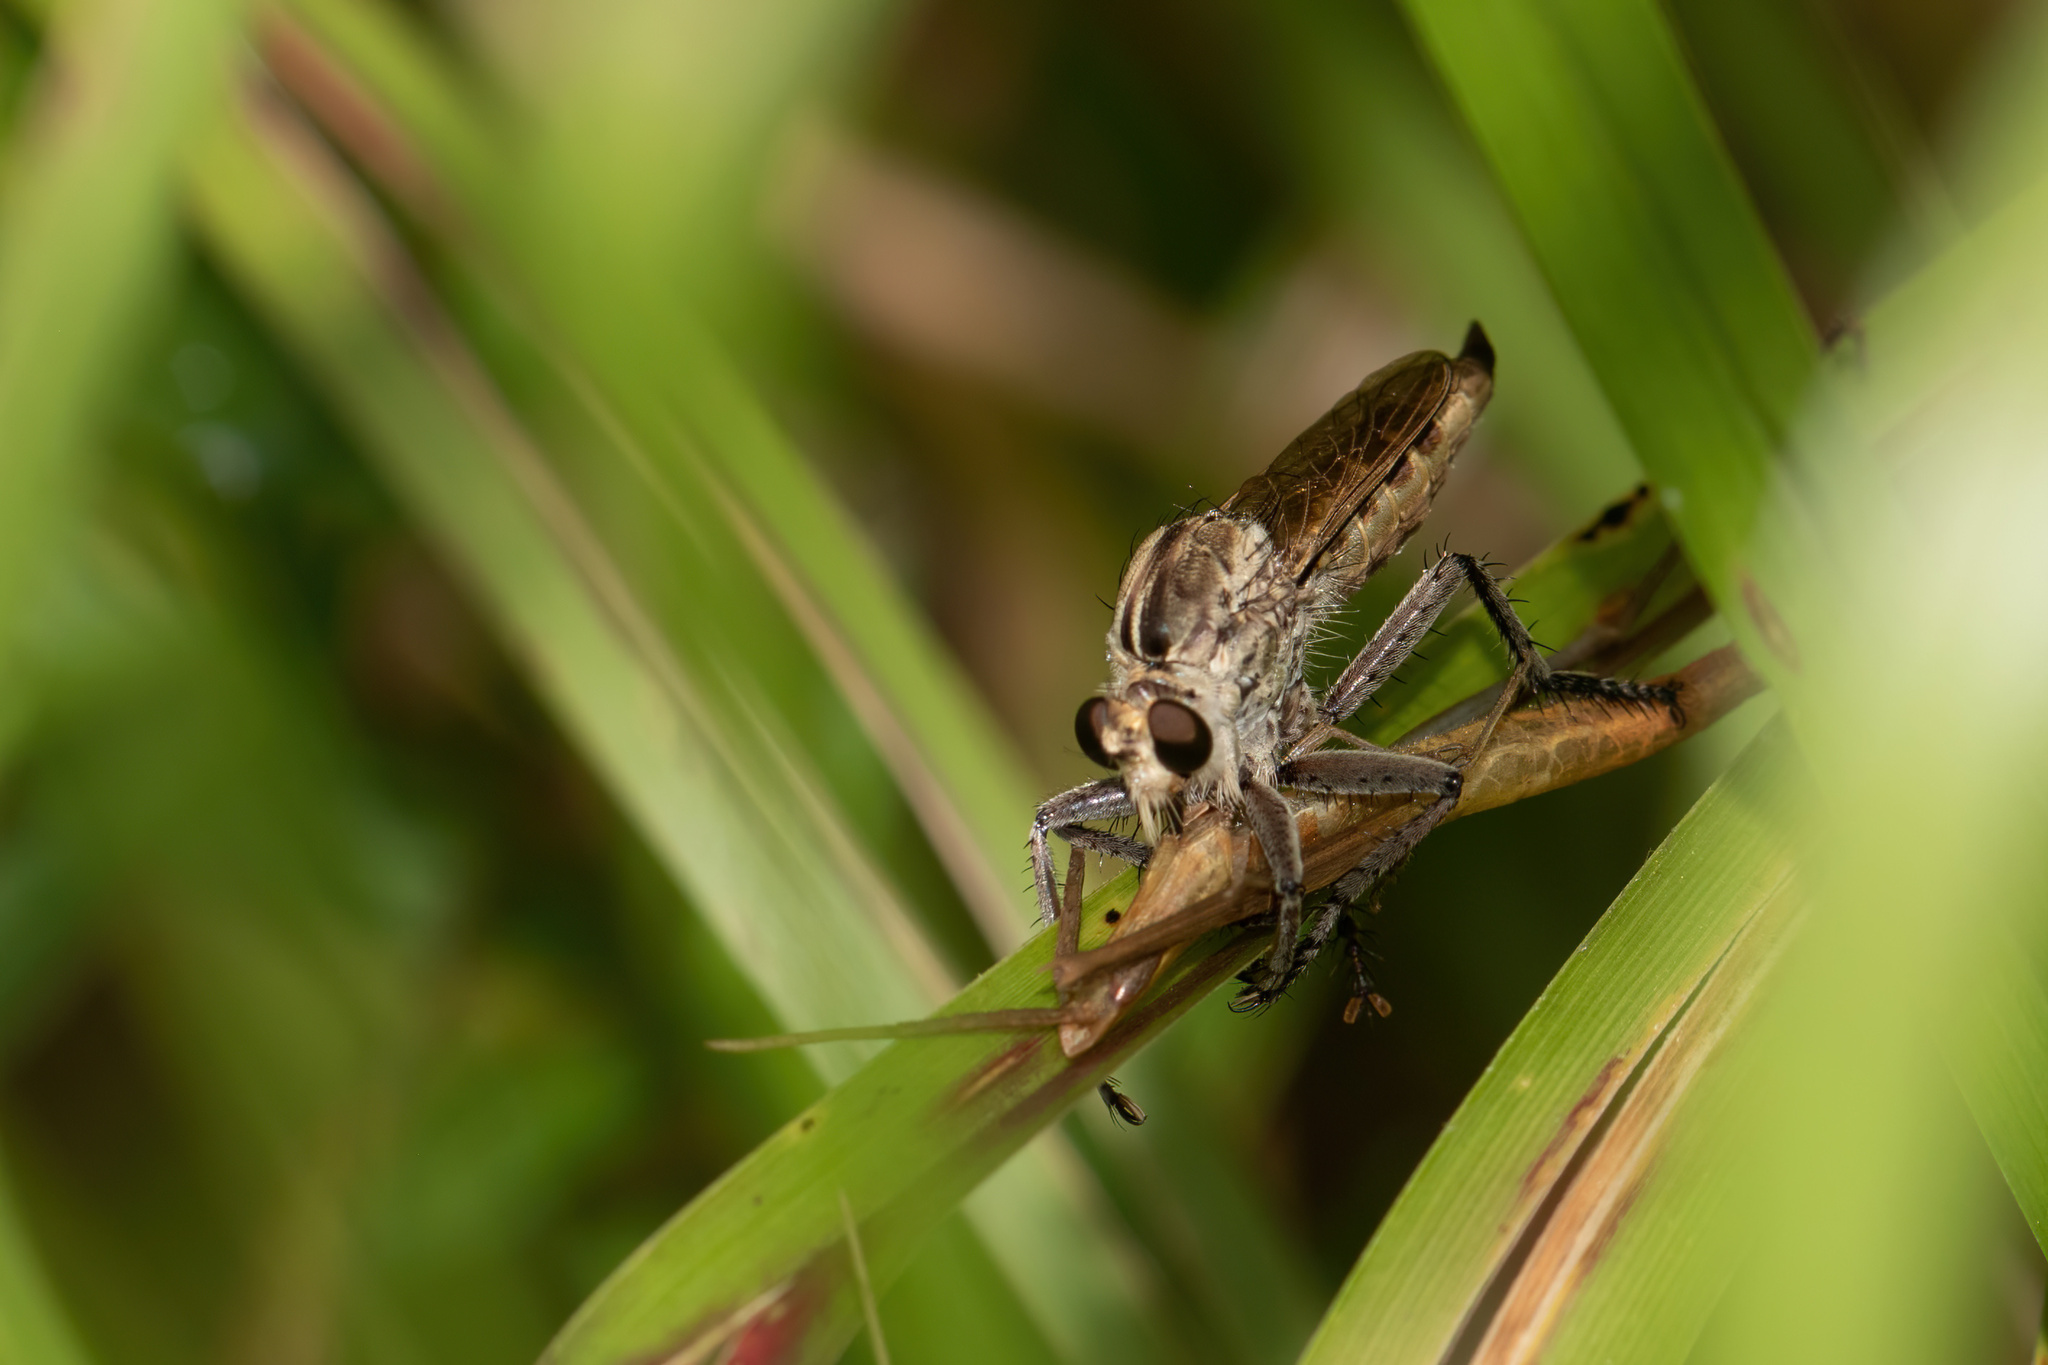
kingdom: Animalia
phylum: Arthropoda
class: Insecta
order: Diptera
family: Asilidae
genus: Triorla
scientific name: Triorla interrupta
